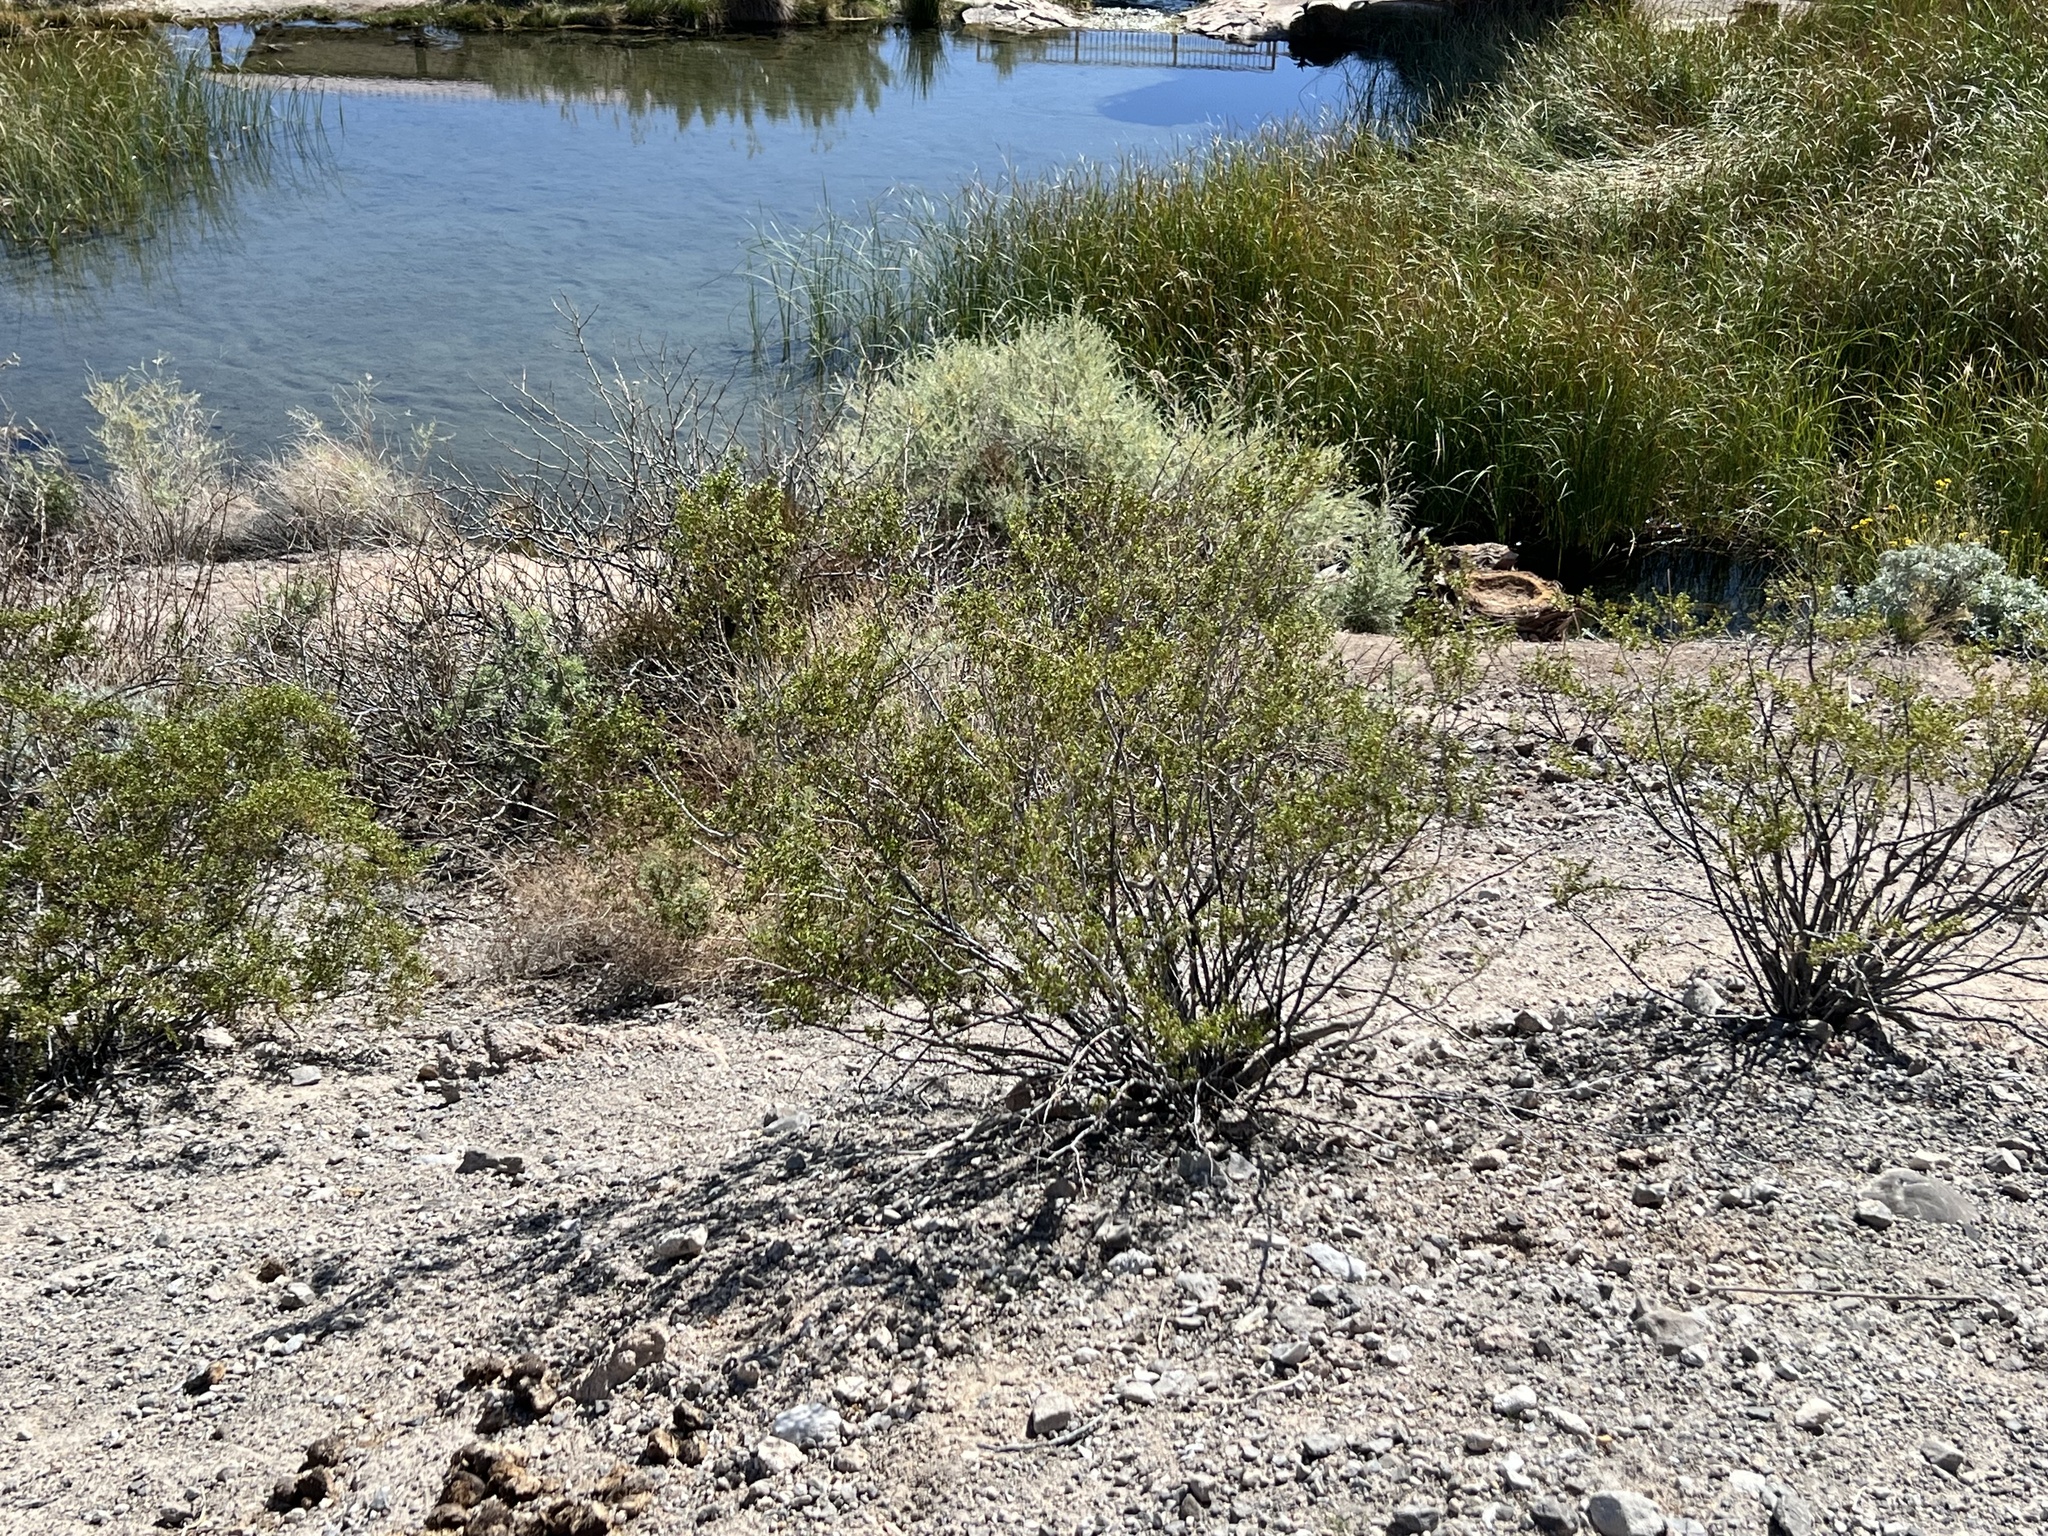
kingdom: Plantae
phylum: Tracheophyta
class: Magnoliopsida
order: Zygophyllales
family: Zygophyllaceae
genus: Larrea
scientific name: Larrea tridentata
